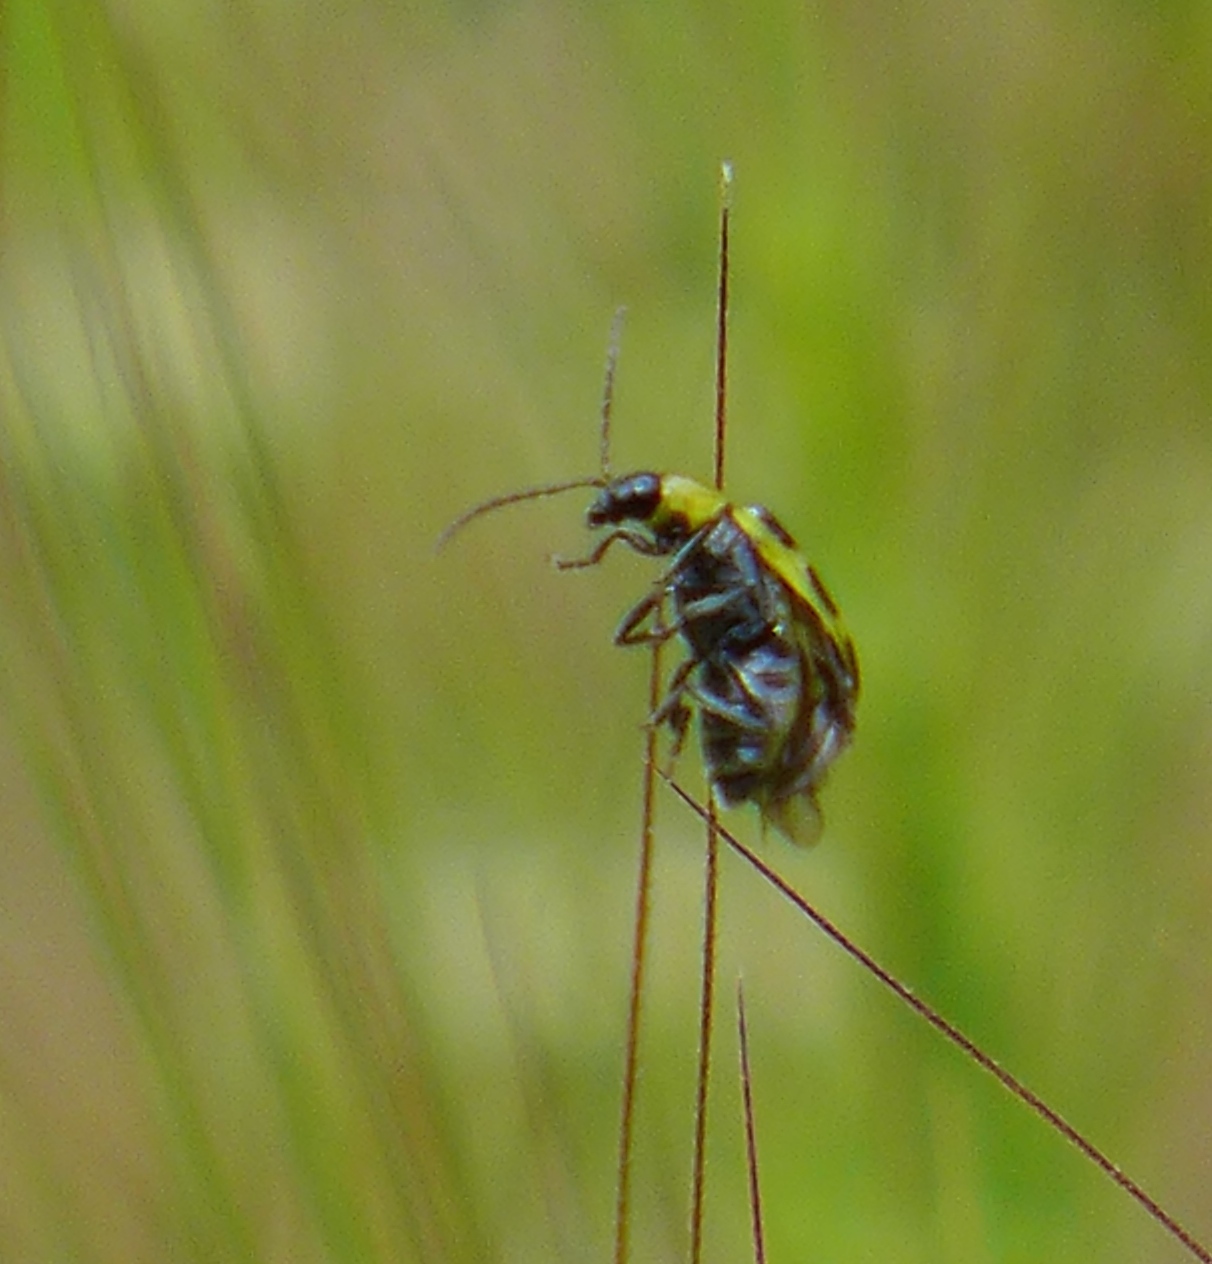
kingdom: Animalia
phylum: Arthropoda
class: Insecta
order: Coleoptera
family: Chrysomelidae
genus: Diabrotica
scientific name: Diabrotica undecimpunctata
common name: Spotted cucumber beetle
